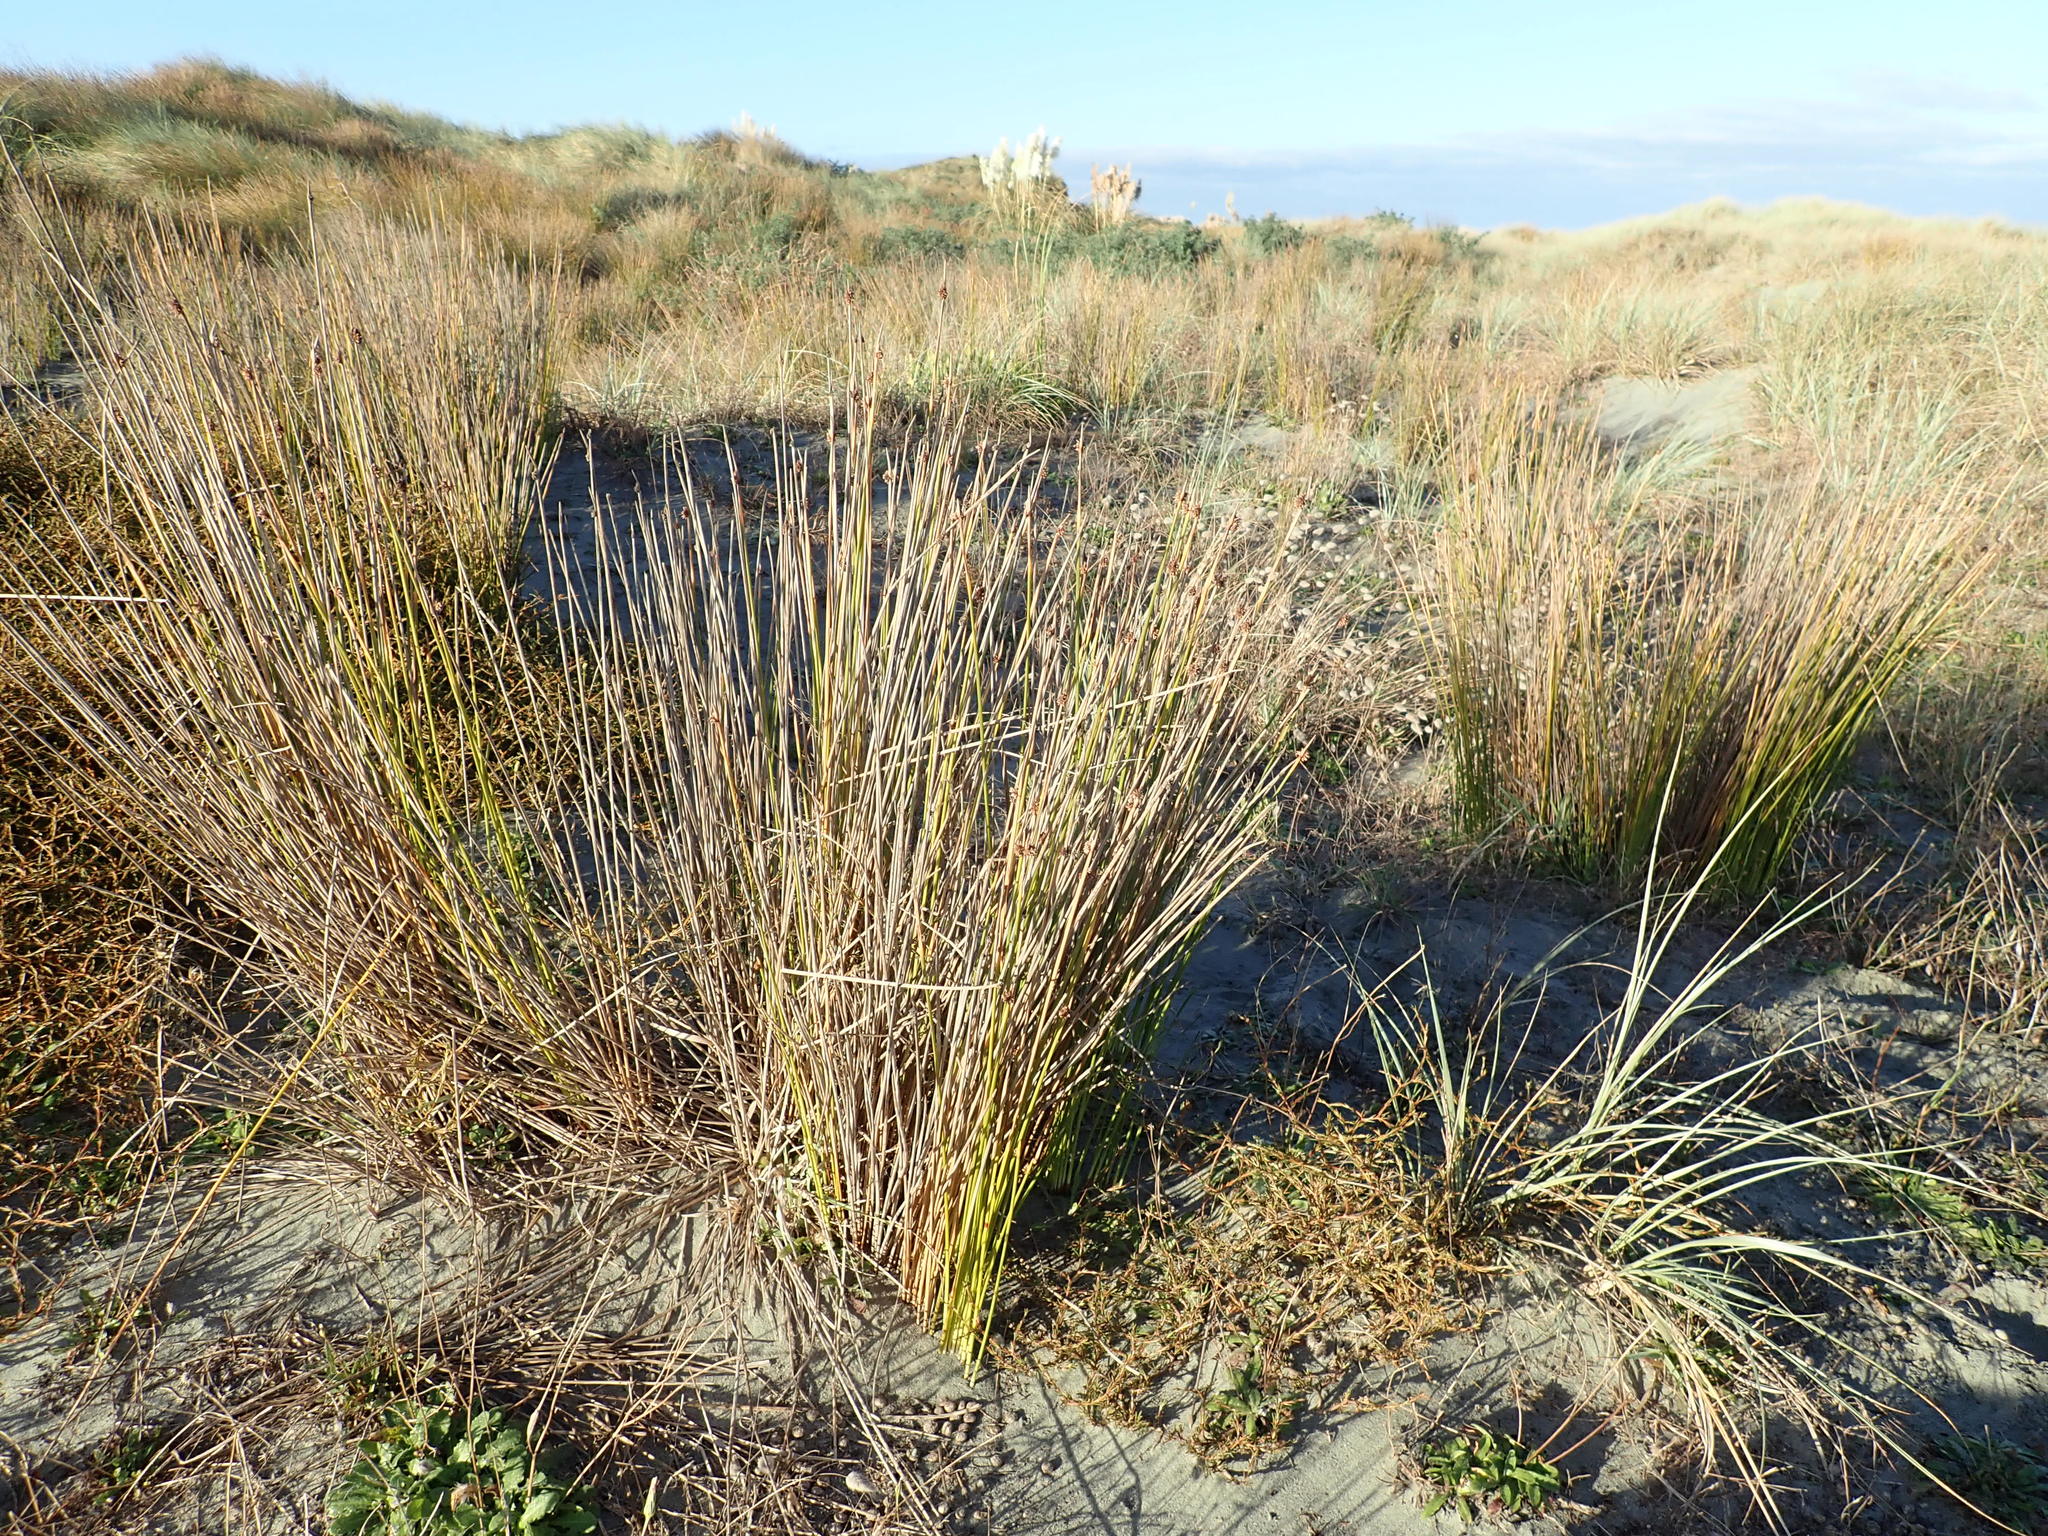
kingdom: Plantae
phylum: Tracheophyta
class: Liliopsida
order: Poales
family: Cyperaceae
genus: Ficinia
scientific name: Ficinia nodosa
